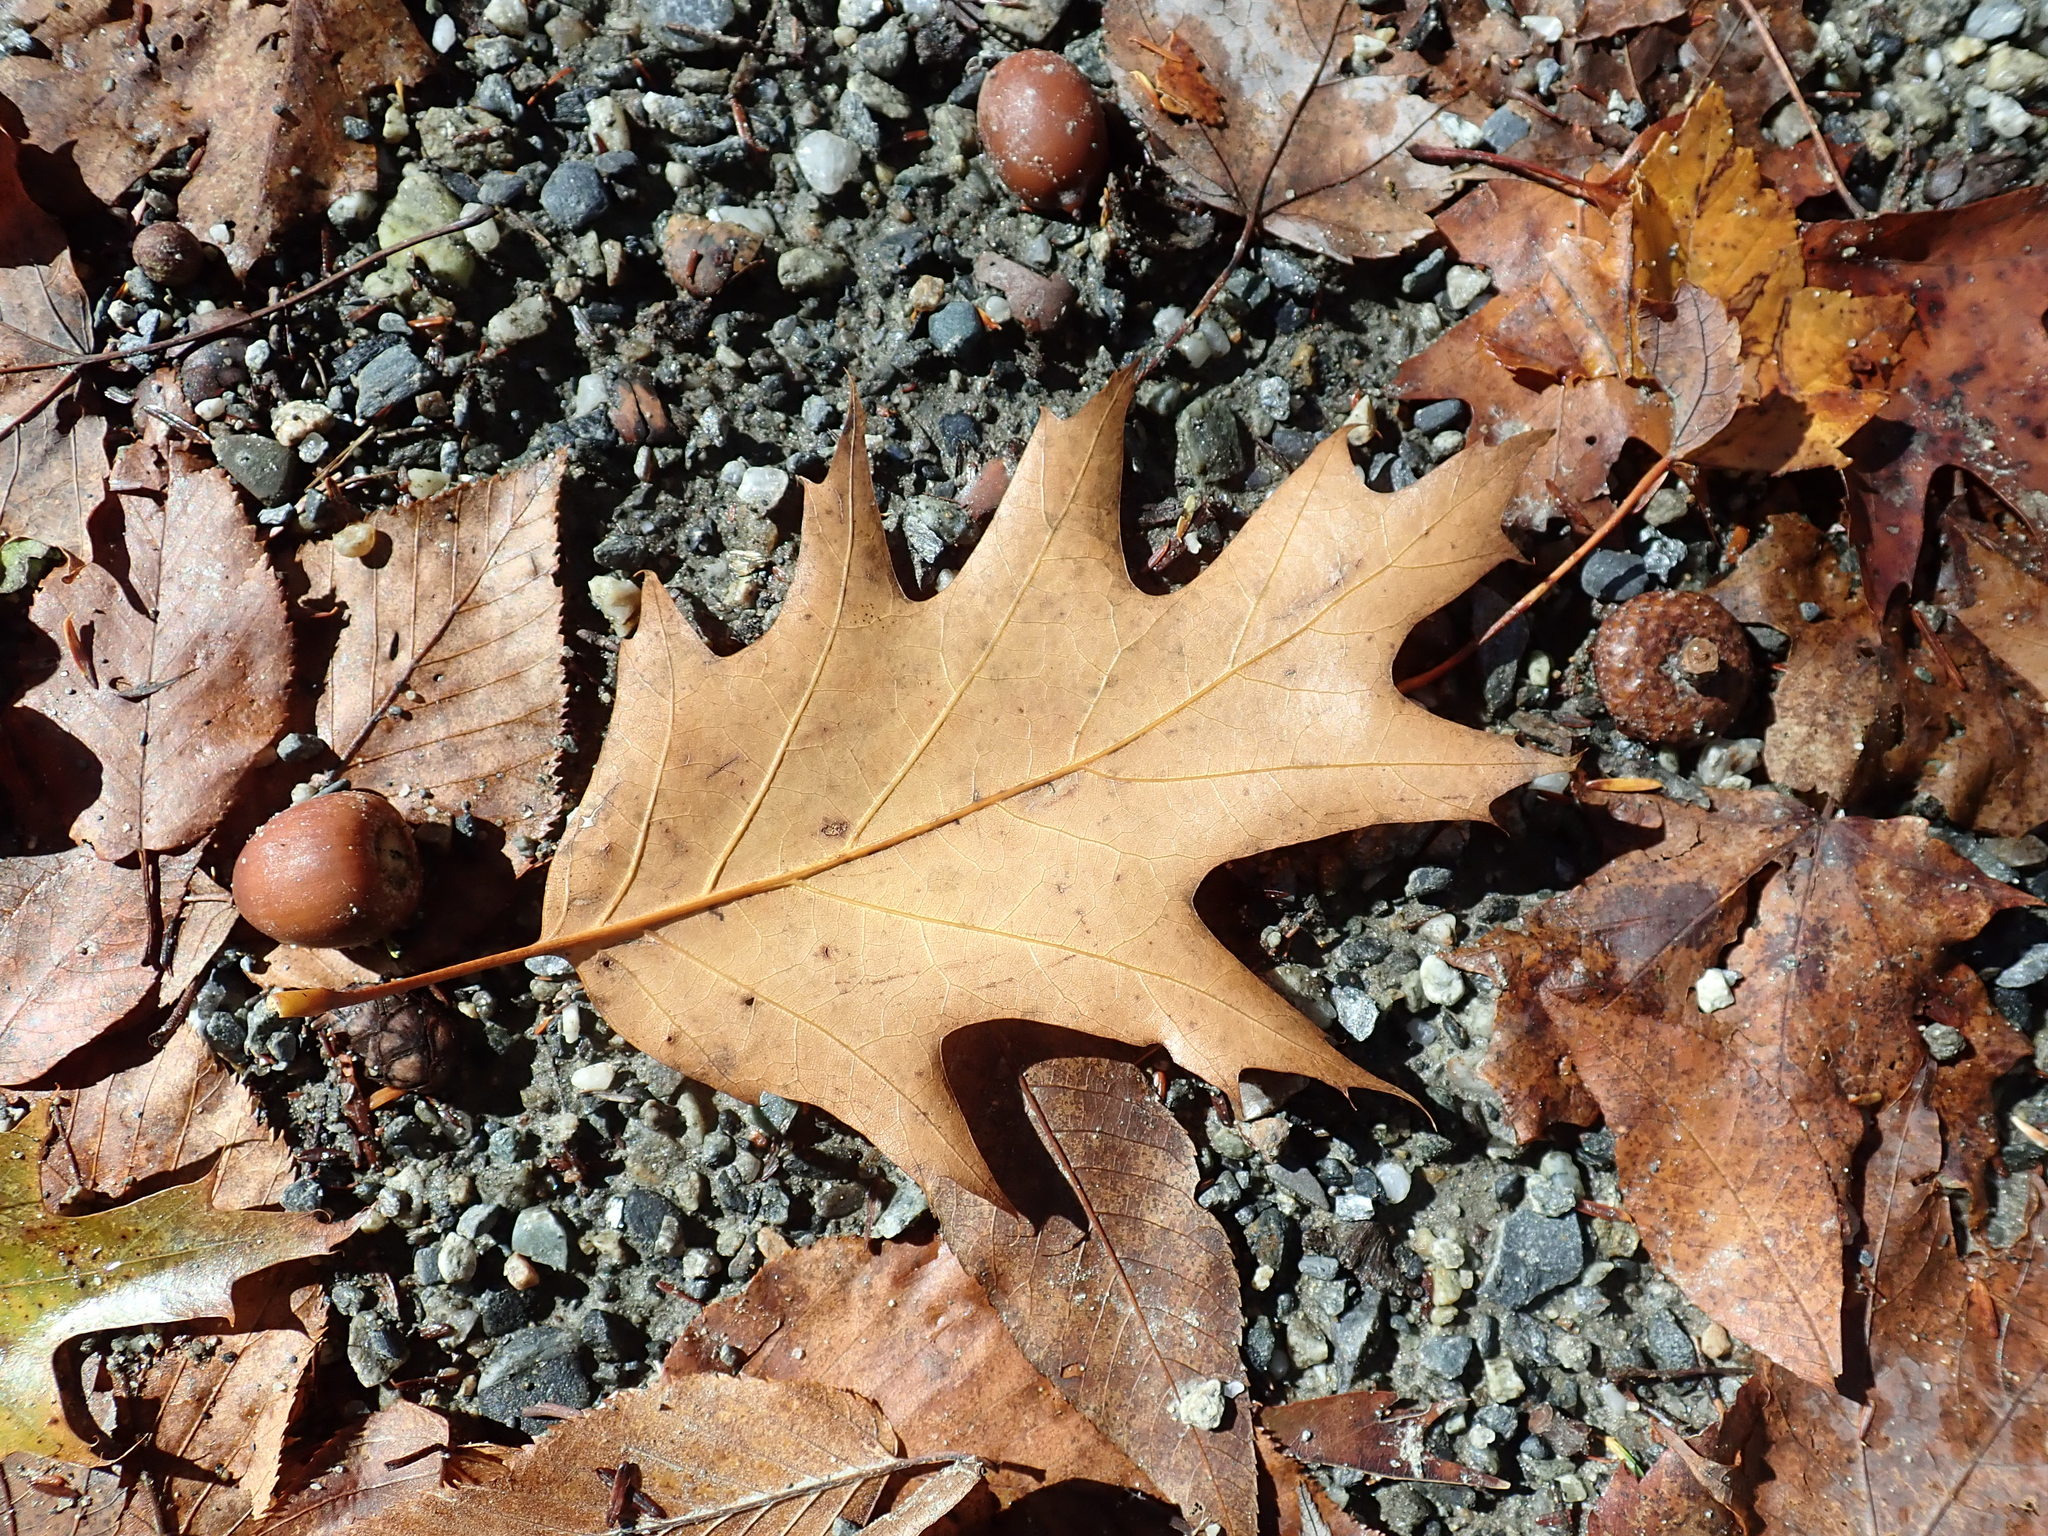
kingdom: Plantae
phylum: Tracheophyta
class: Magnoliopsida
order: Fagales
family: Fagaceae
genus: Quercus
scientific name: Quercus rubra
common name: Red oak
